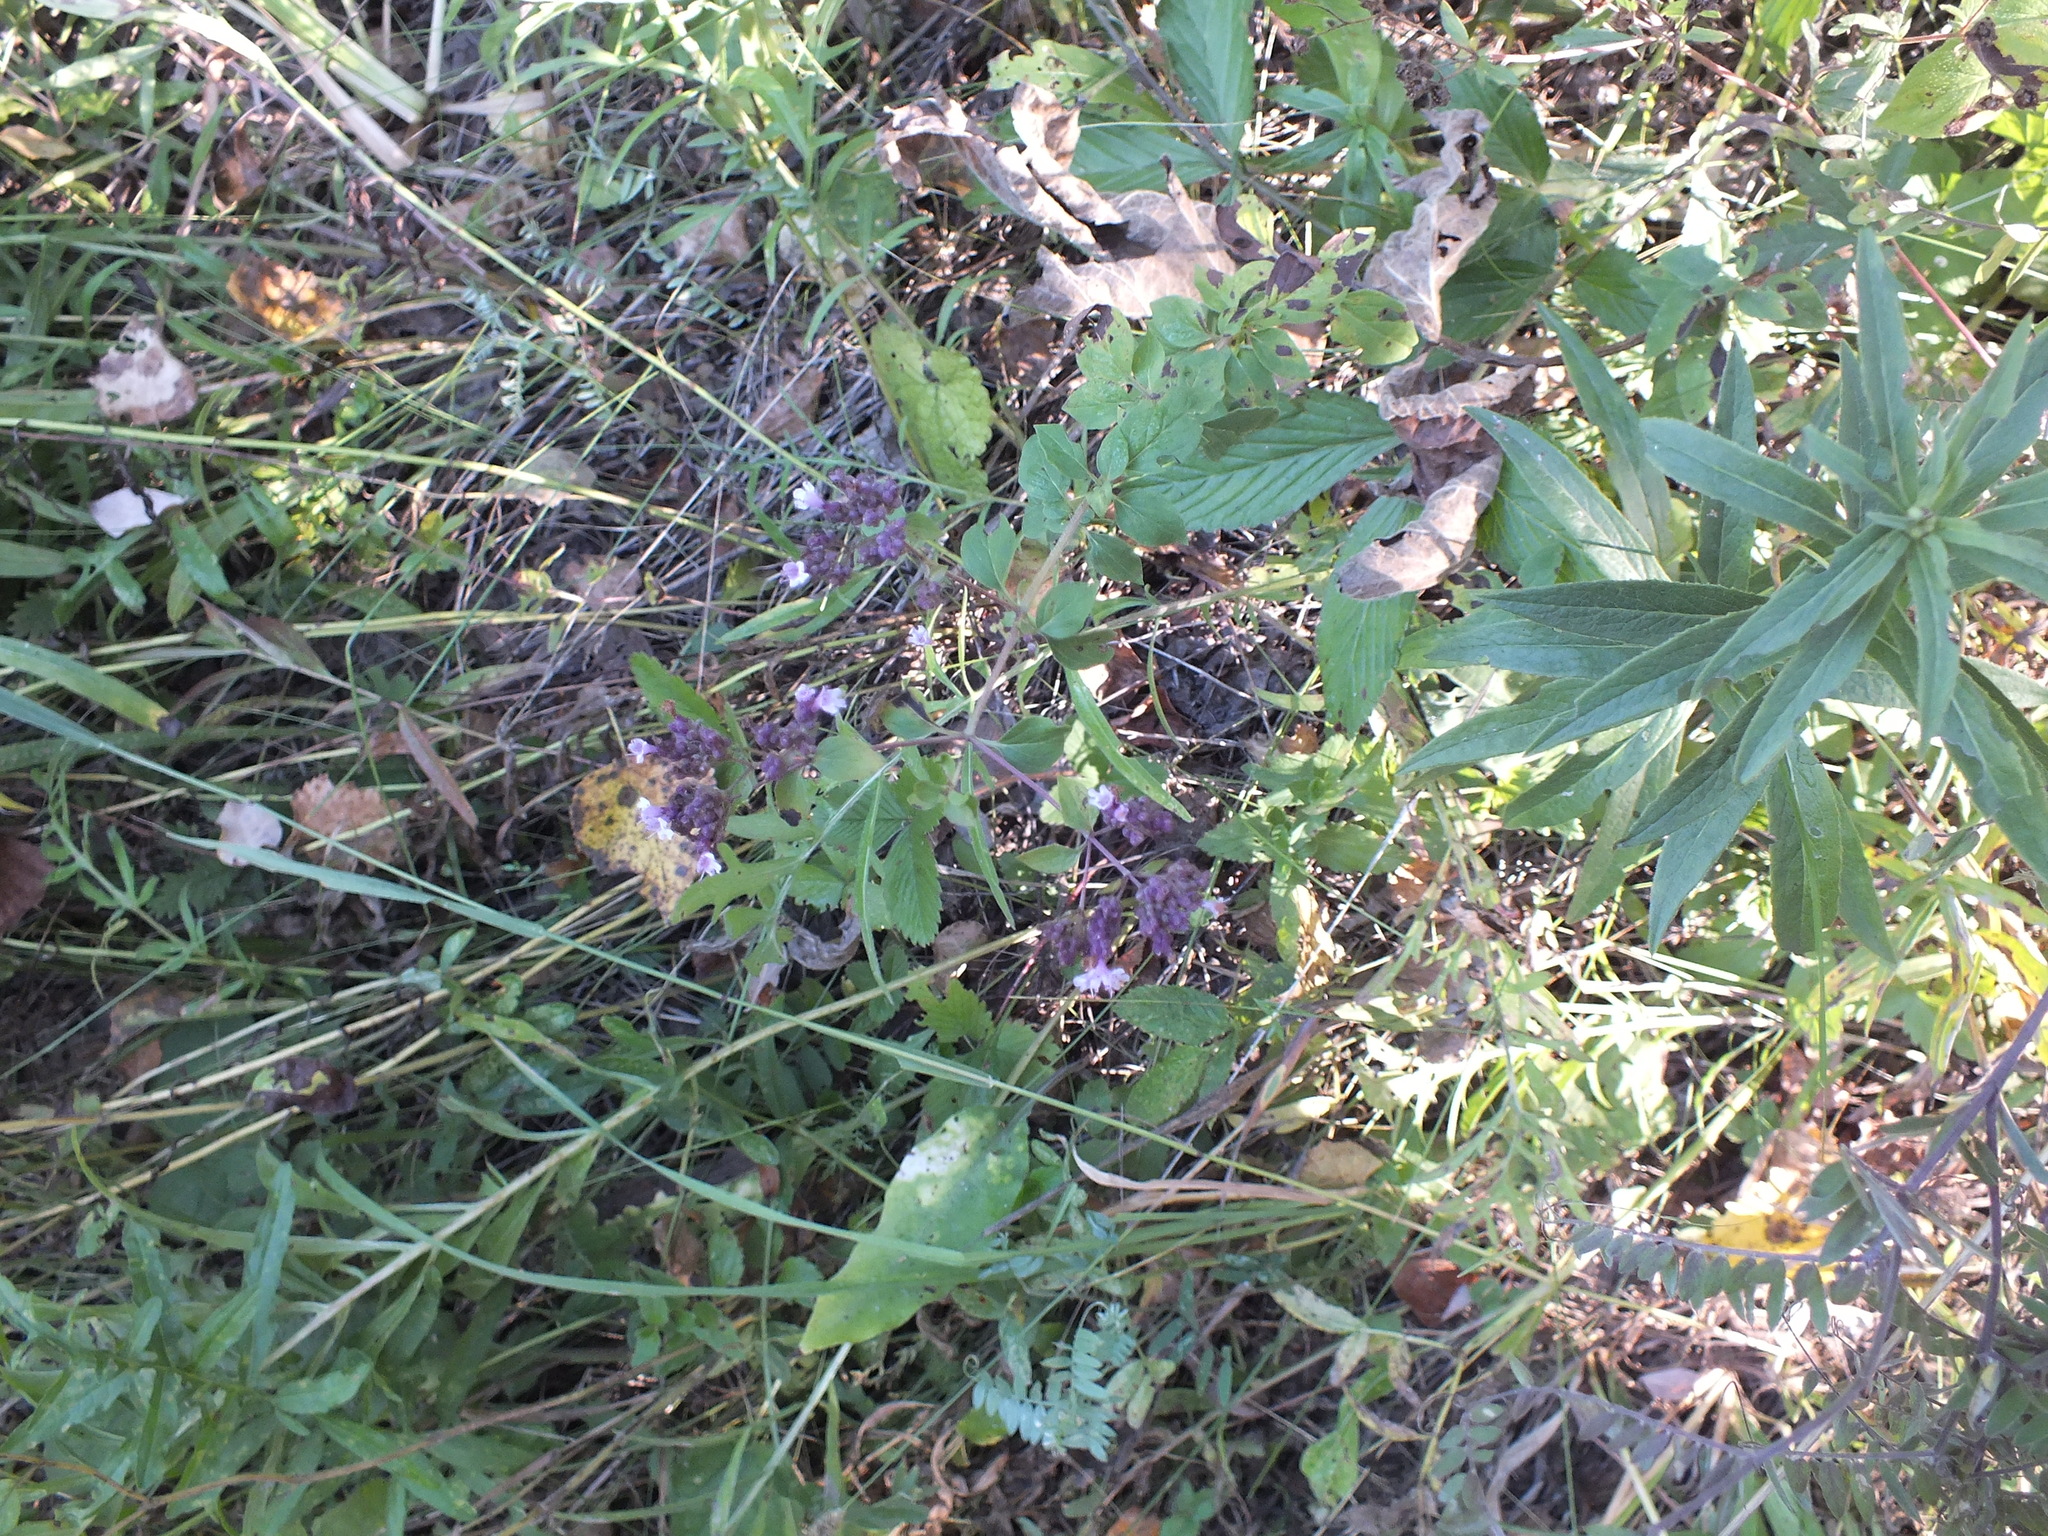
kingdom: Plantae
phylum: Tracheophyta
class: Magnoliopsida
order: Lamiales
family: Lamiaceae
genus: Origanum
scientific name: Origanum vulgare
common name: Wild marjoram
